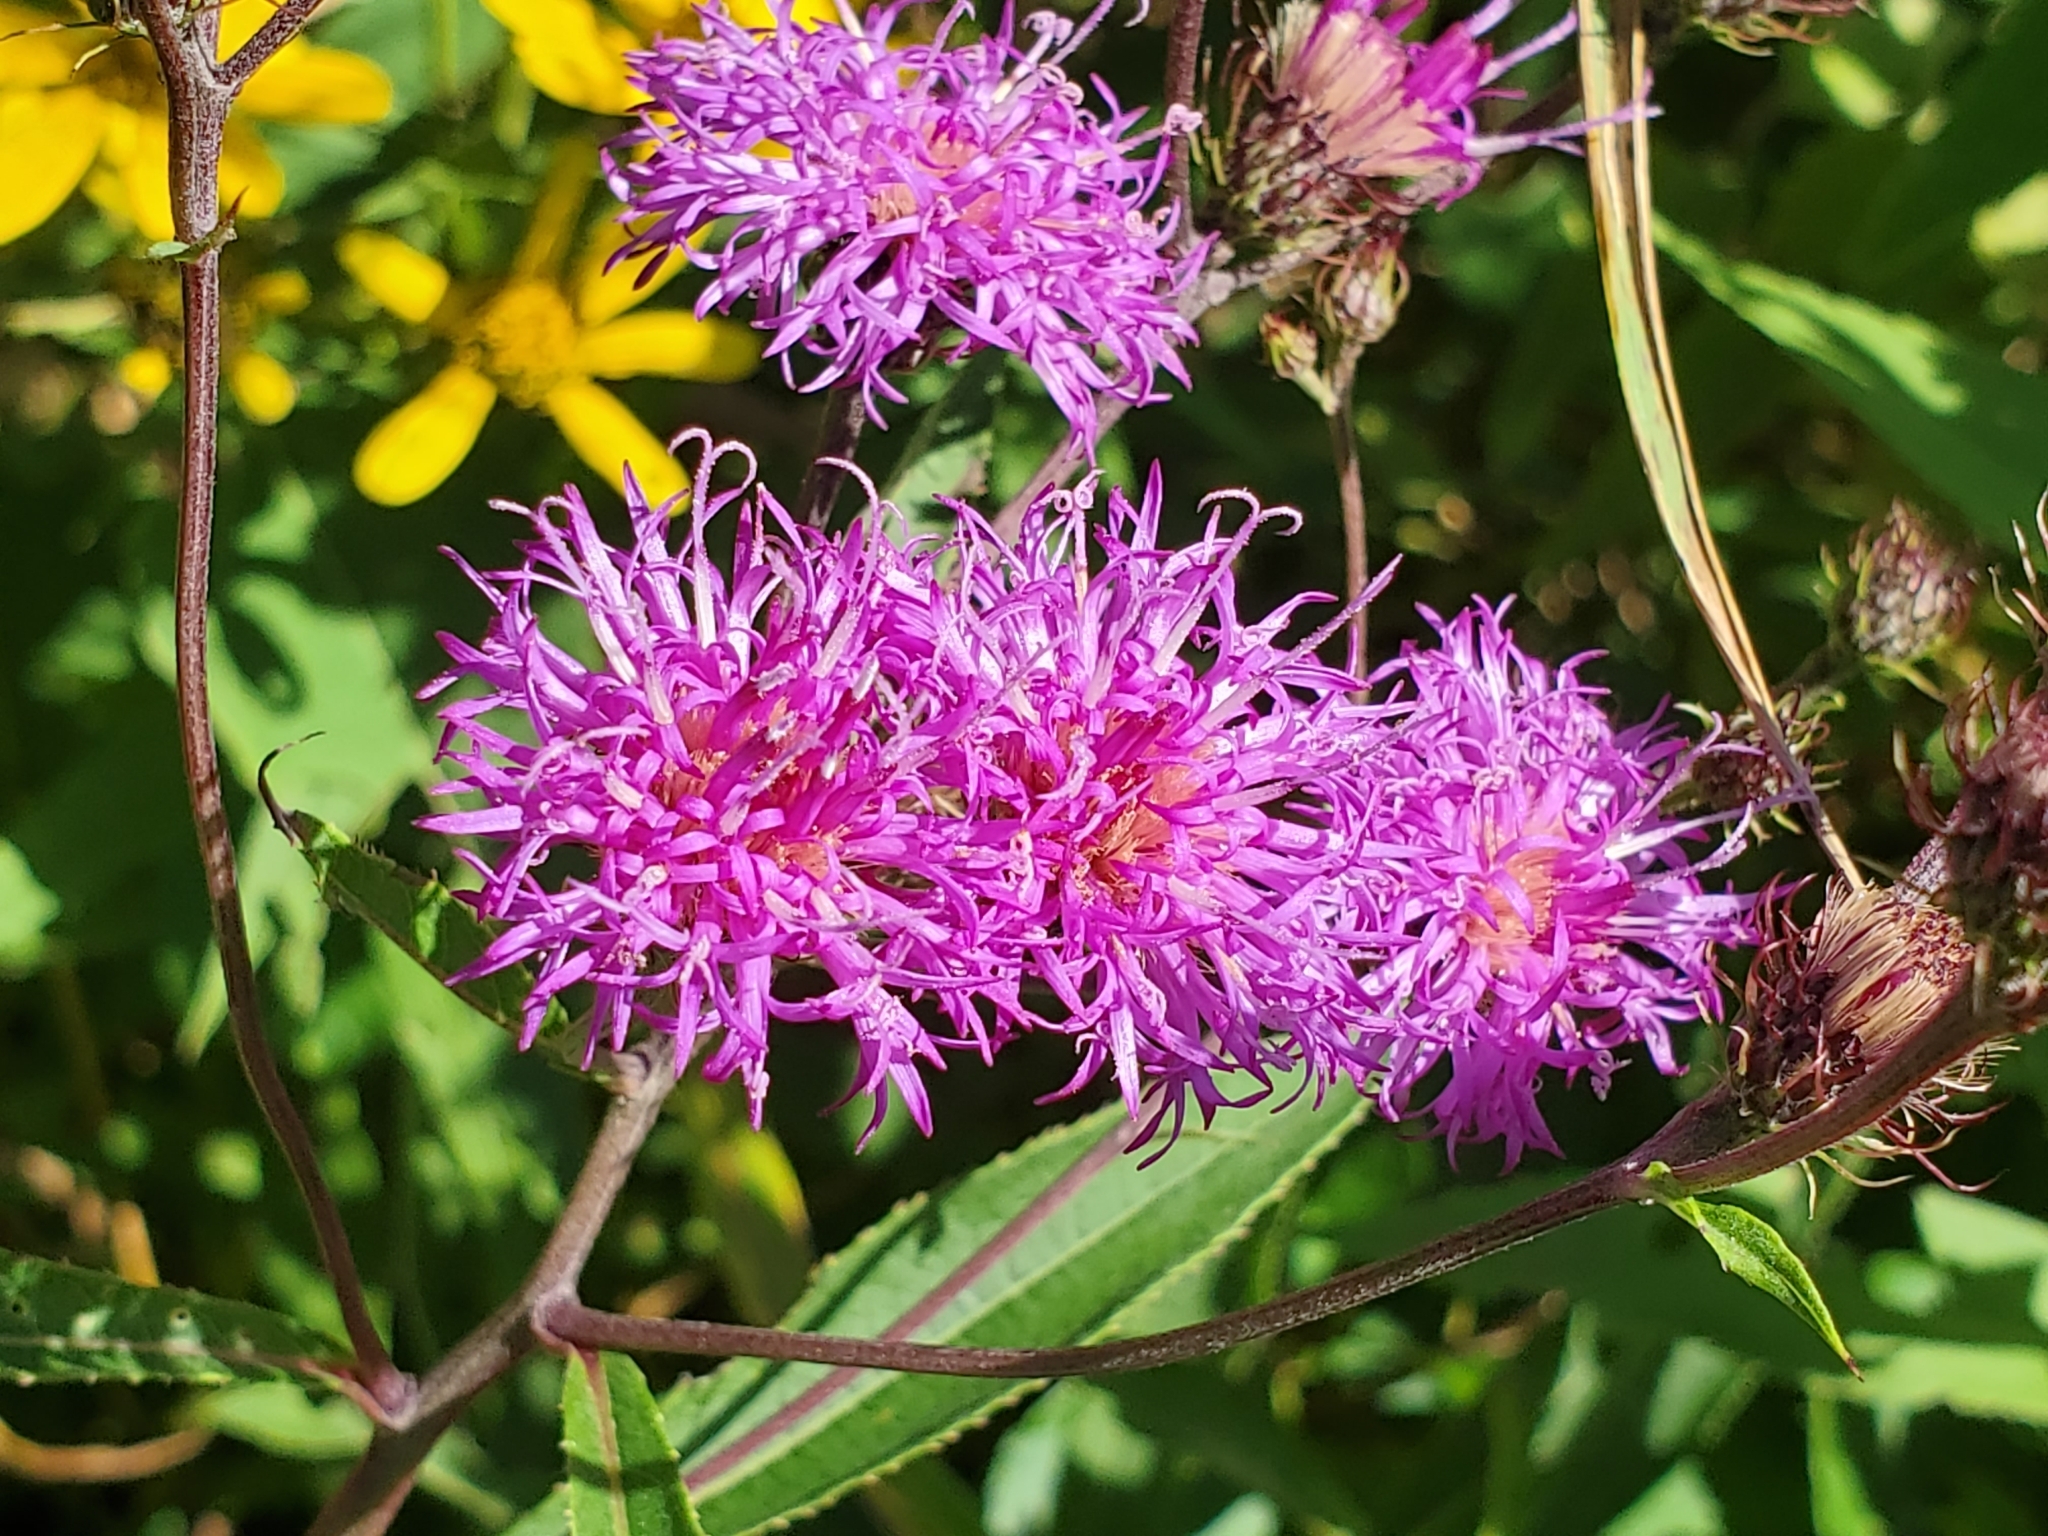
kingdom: Plantae
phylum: Tracheophyta
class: Magnoliopsida
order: Asterales
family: Asteraceae
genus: Vernonia
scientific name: Vernonia noveboracensis
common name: New york ironweed
